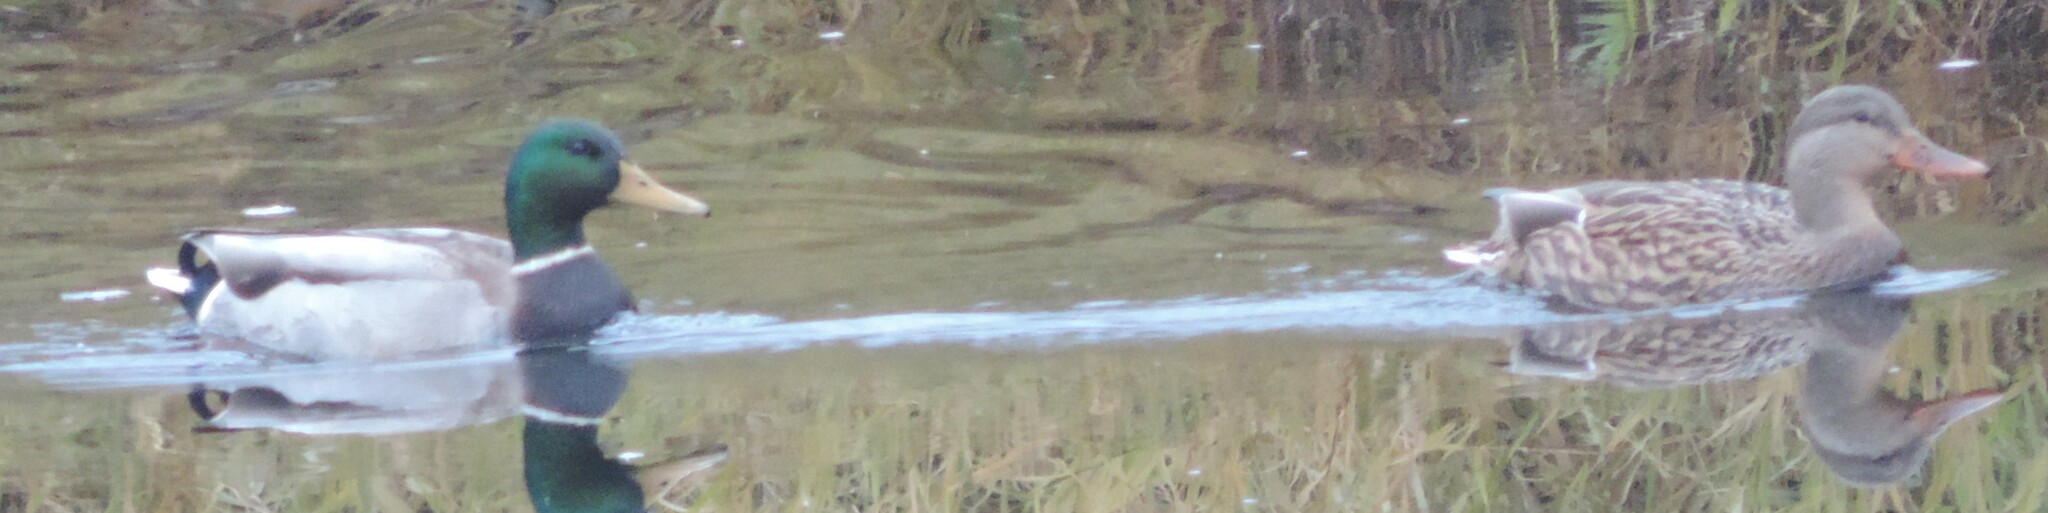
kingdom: Animalia
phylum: Chordata
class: Aves
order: Anseriformes
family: Anatidae
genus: Anas
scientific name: Anas platyrhynchos
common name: Mallard
